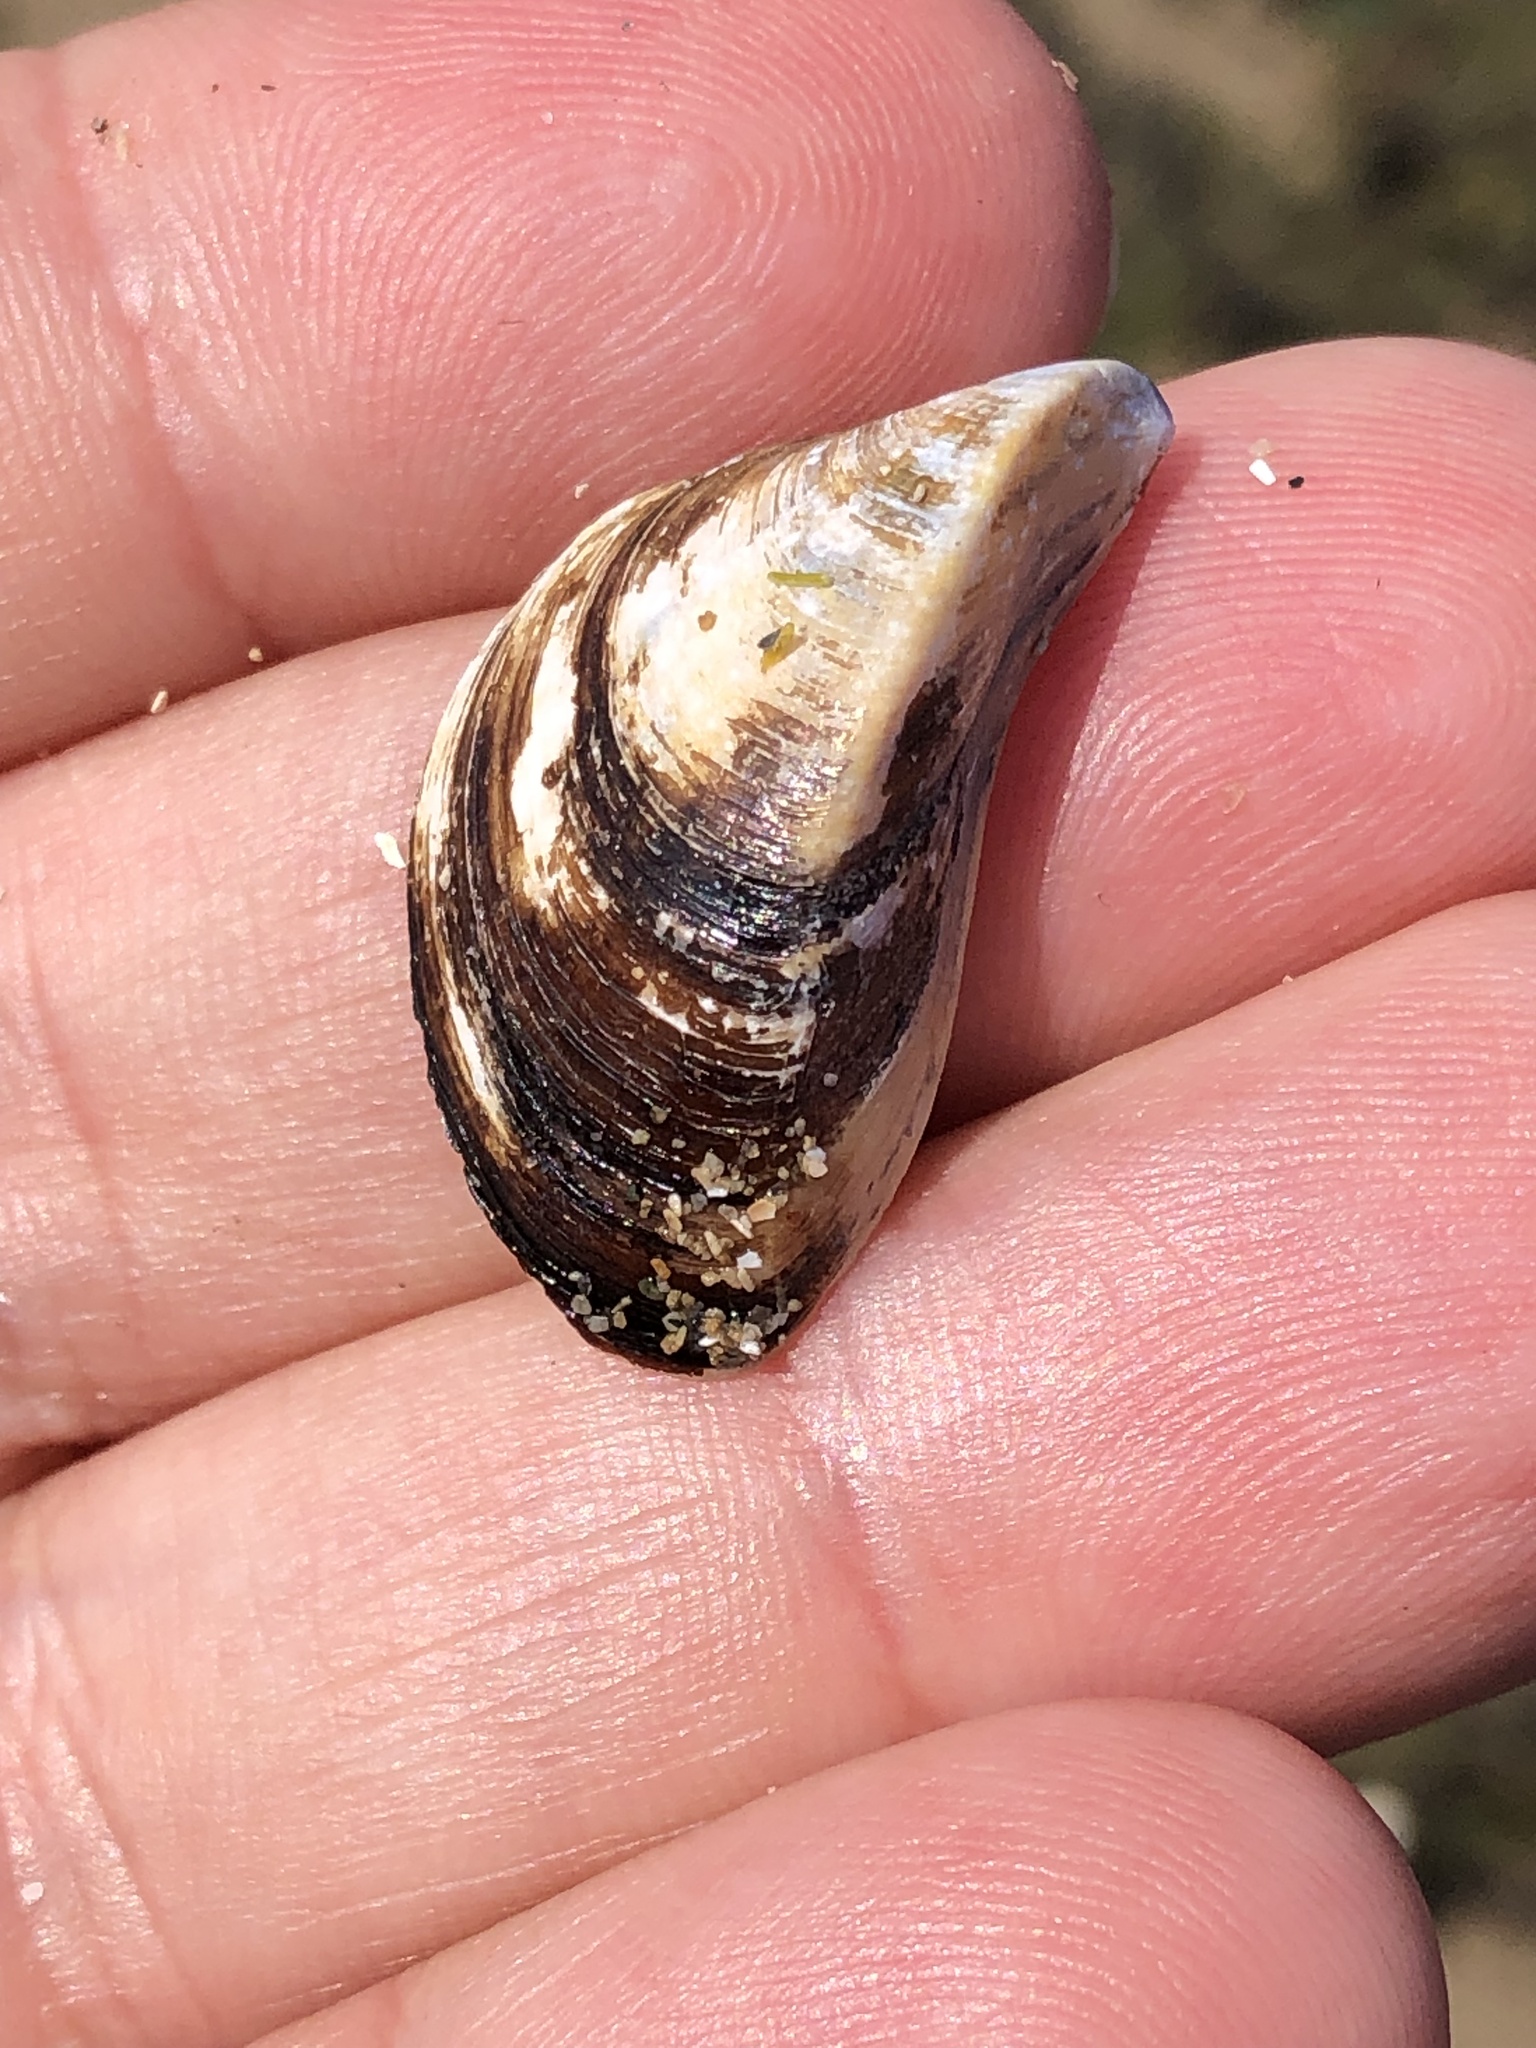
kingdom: Animalia
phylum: Mollusca
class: Bivalvia
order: Myida
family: Dreissenidae
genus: Dreissena
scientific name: Dreissena polymorpha
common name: Zebra mussel
